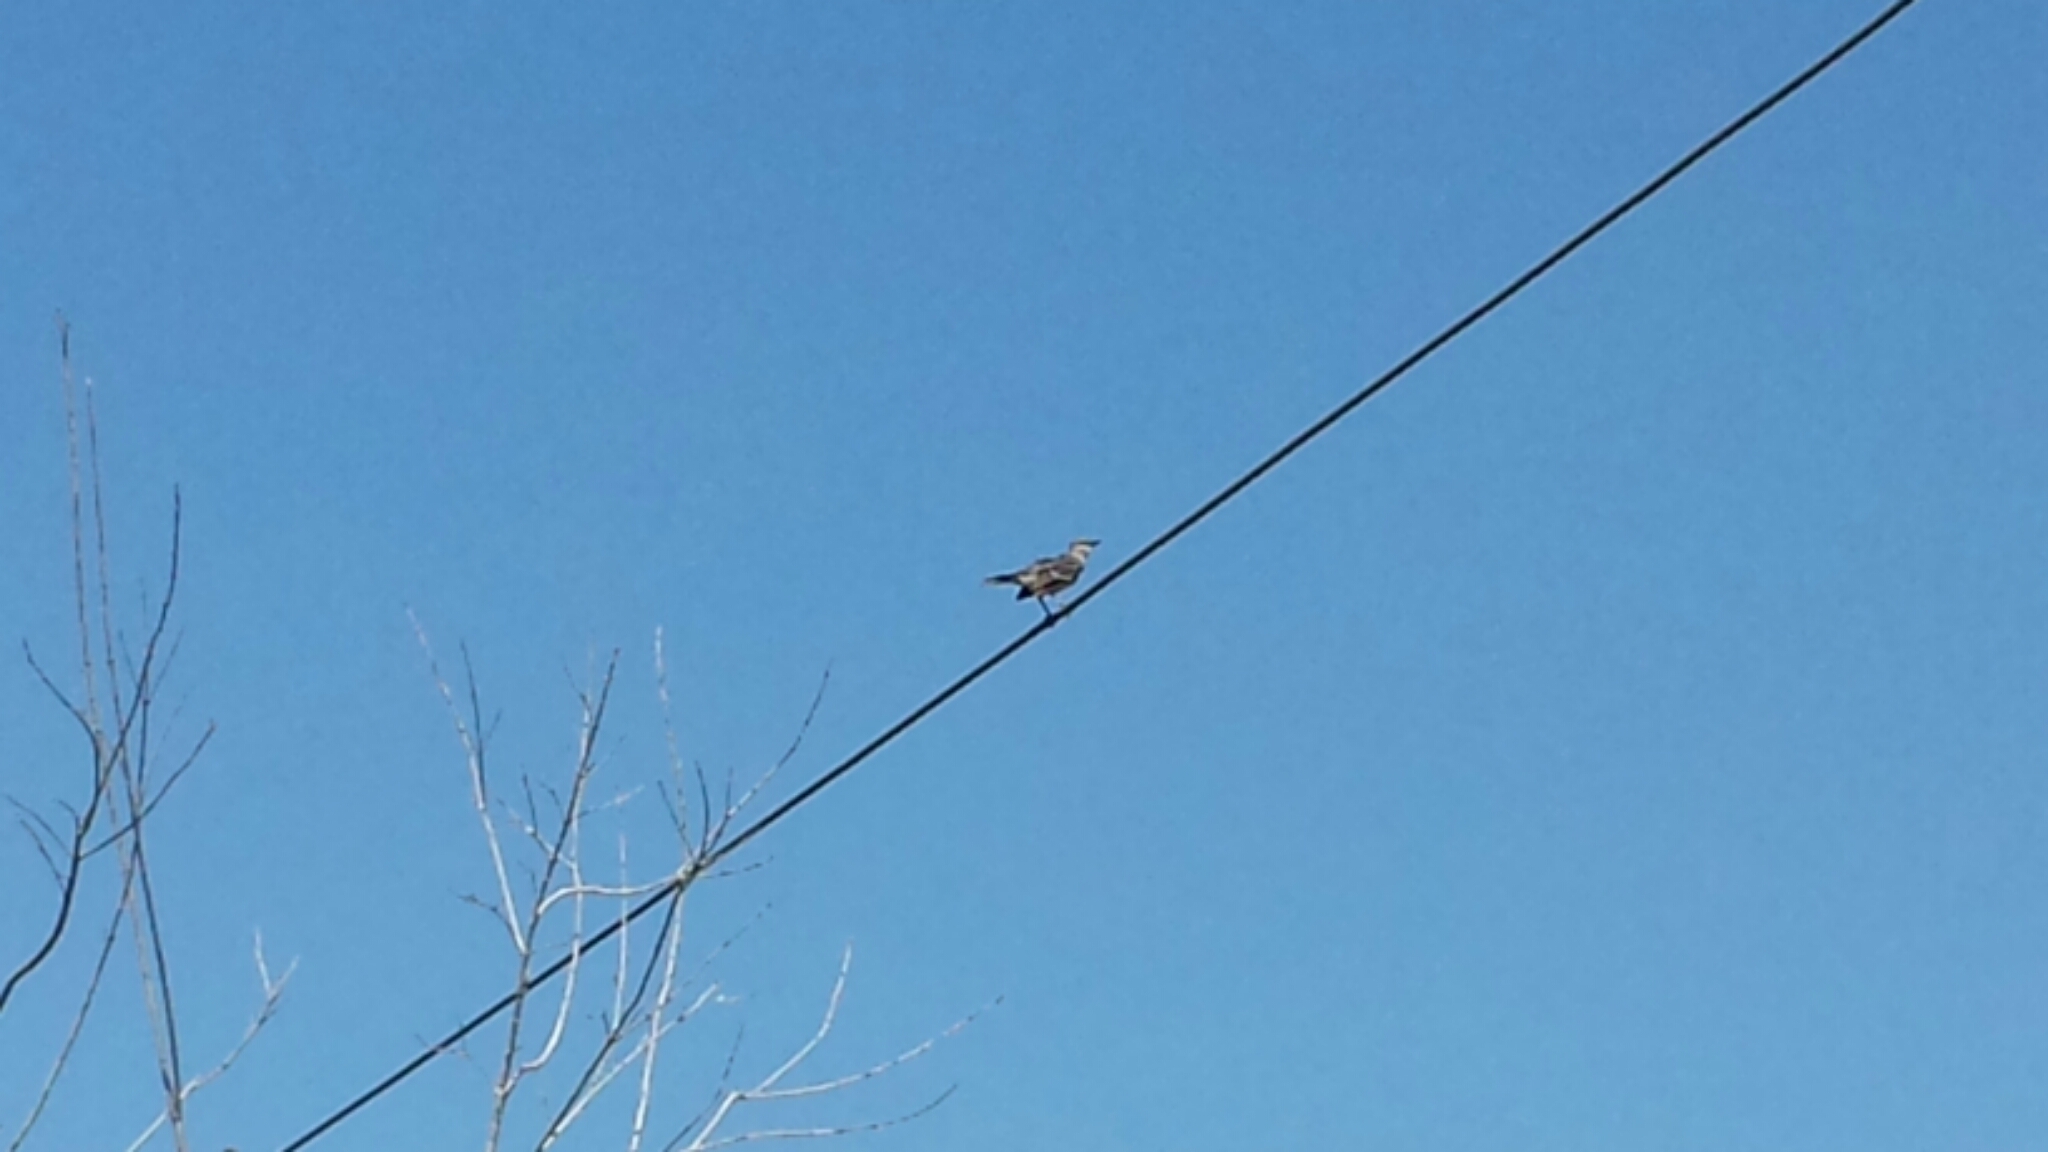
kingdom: Animalia
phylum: Chordata
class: Aves
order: Passeriformes
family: Mimidae
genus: Mimus
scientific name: Mimus polyglottos
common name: Northern mockingbird
